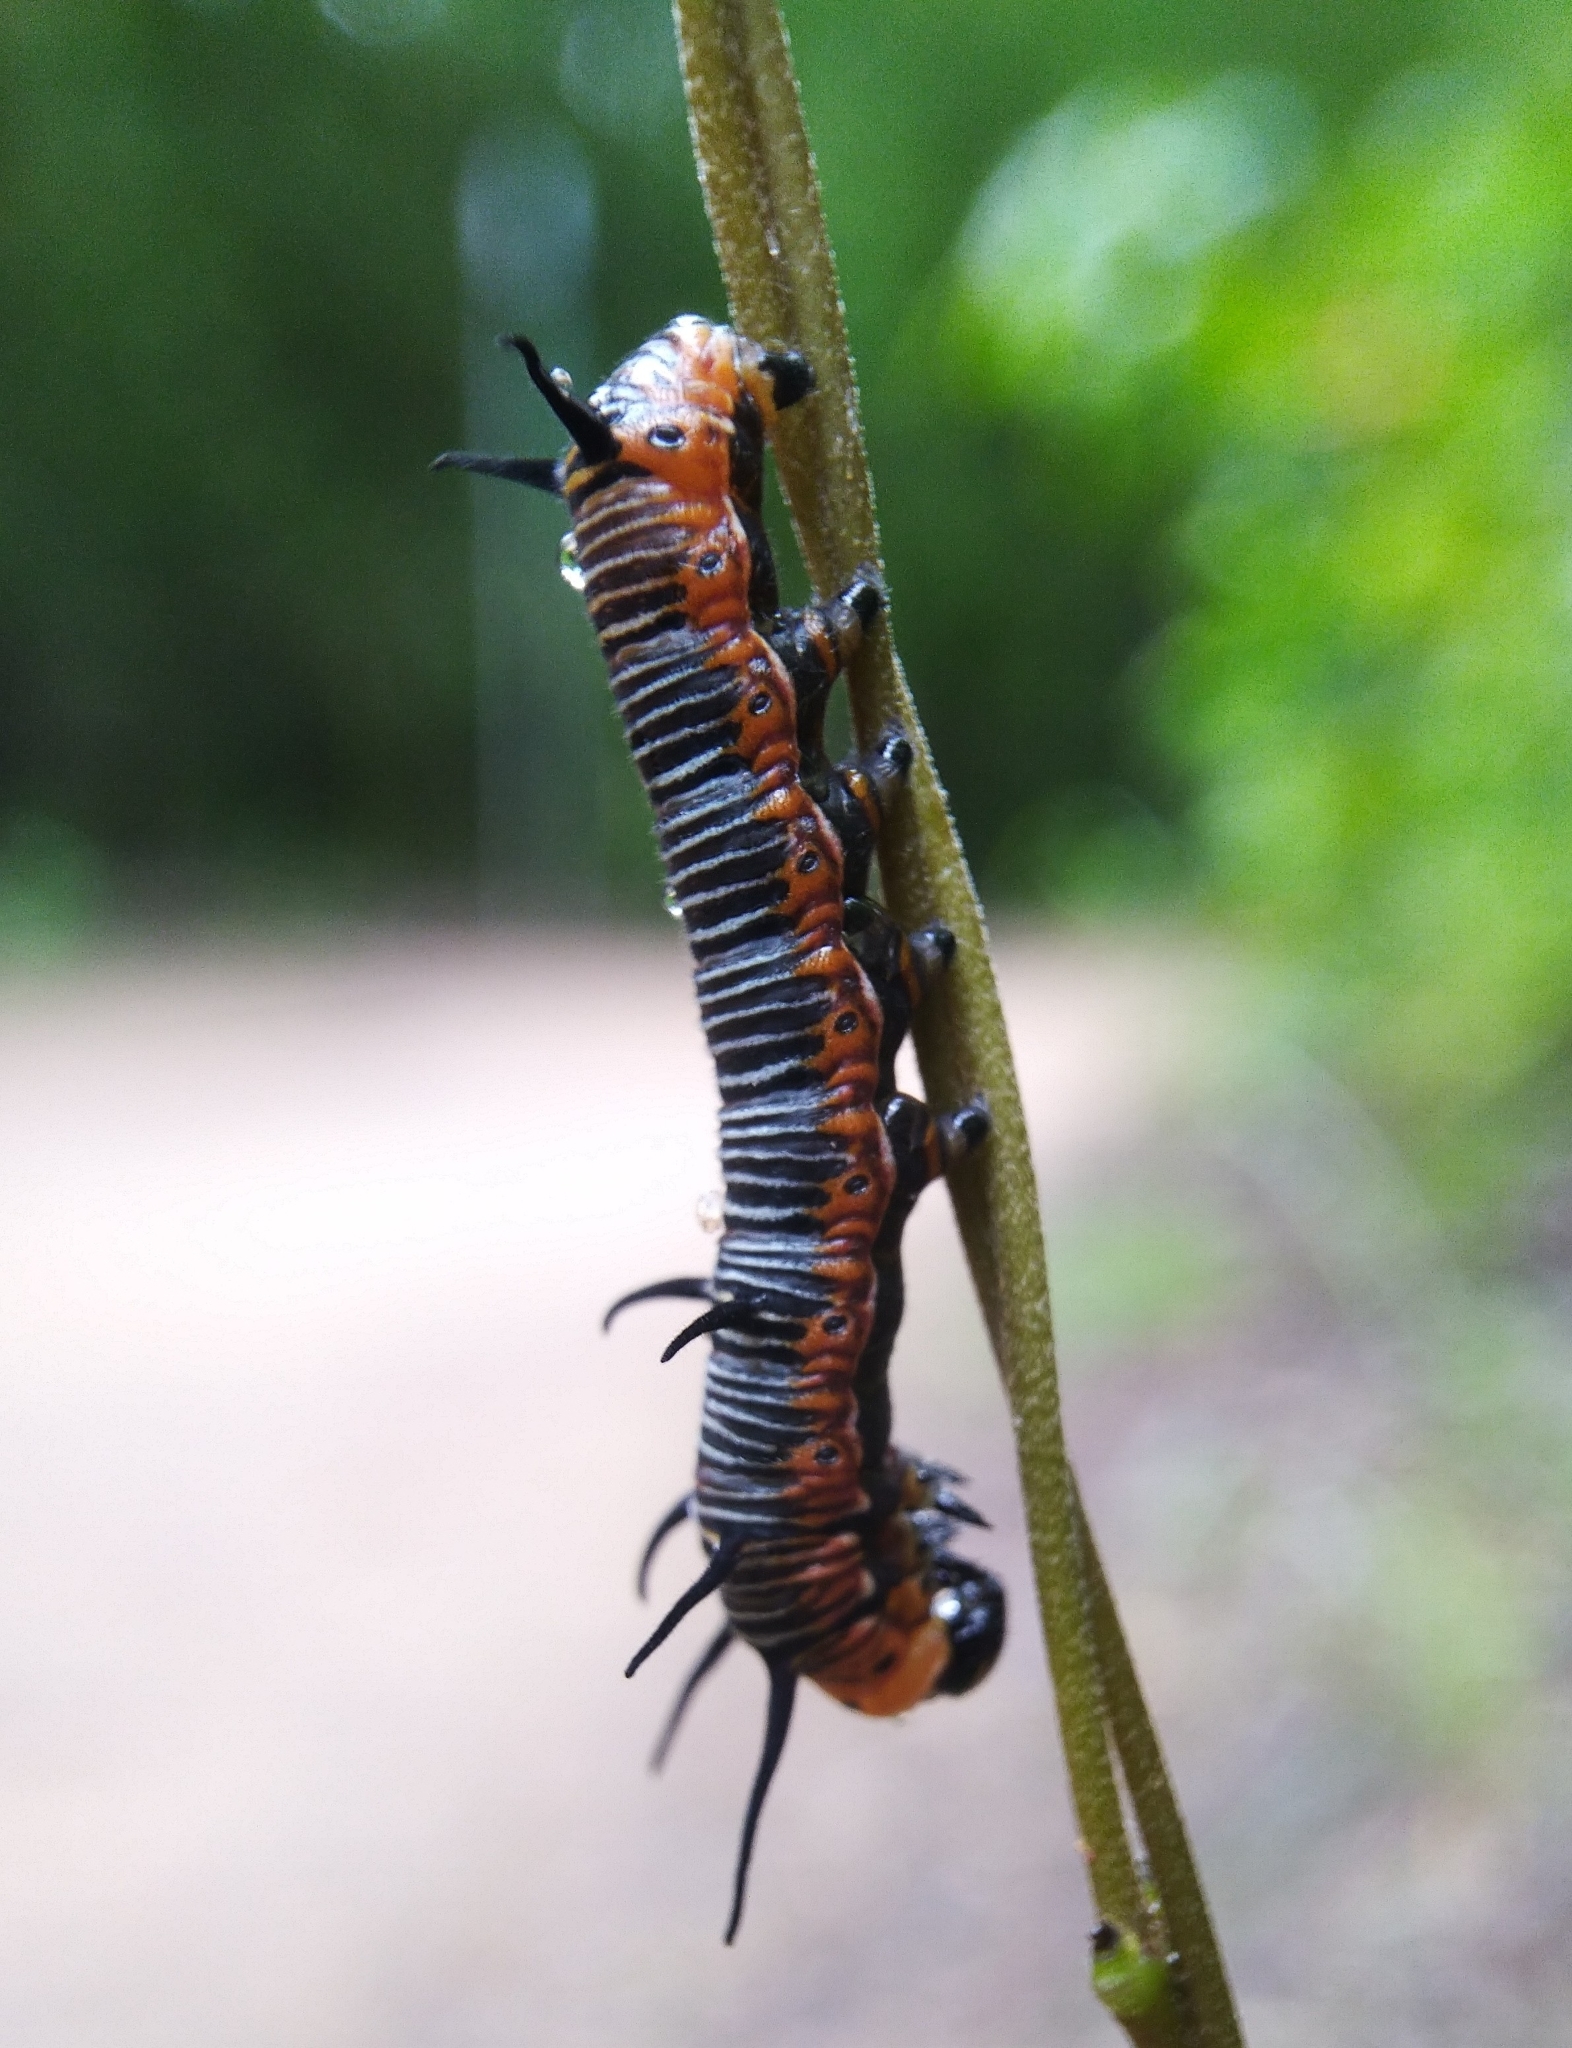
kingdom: Animalia
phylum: Arthropoda
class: Insecta
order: Lepidoptera
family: Nymphalidae
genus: Euploea
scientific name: Euploea core
